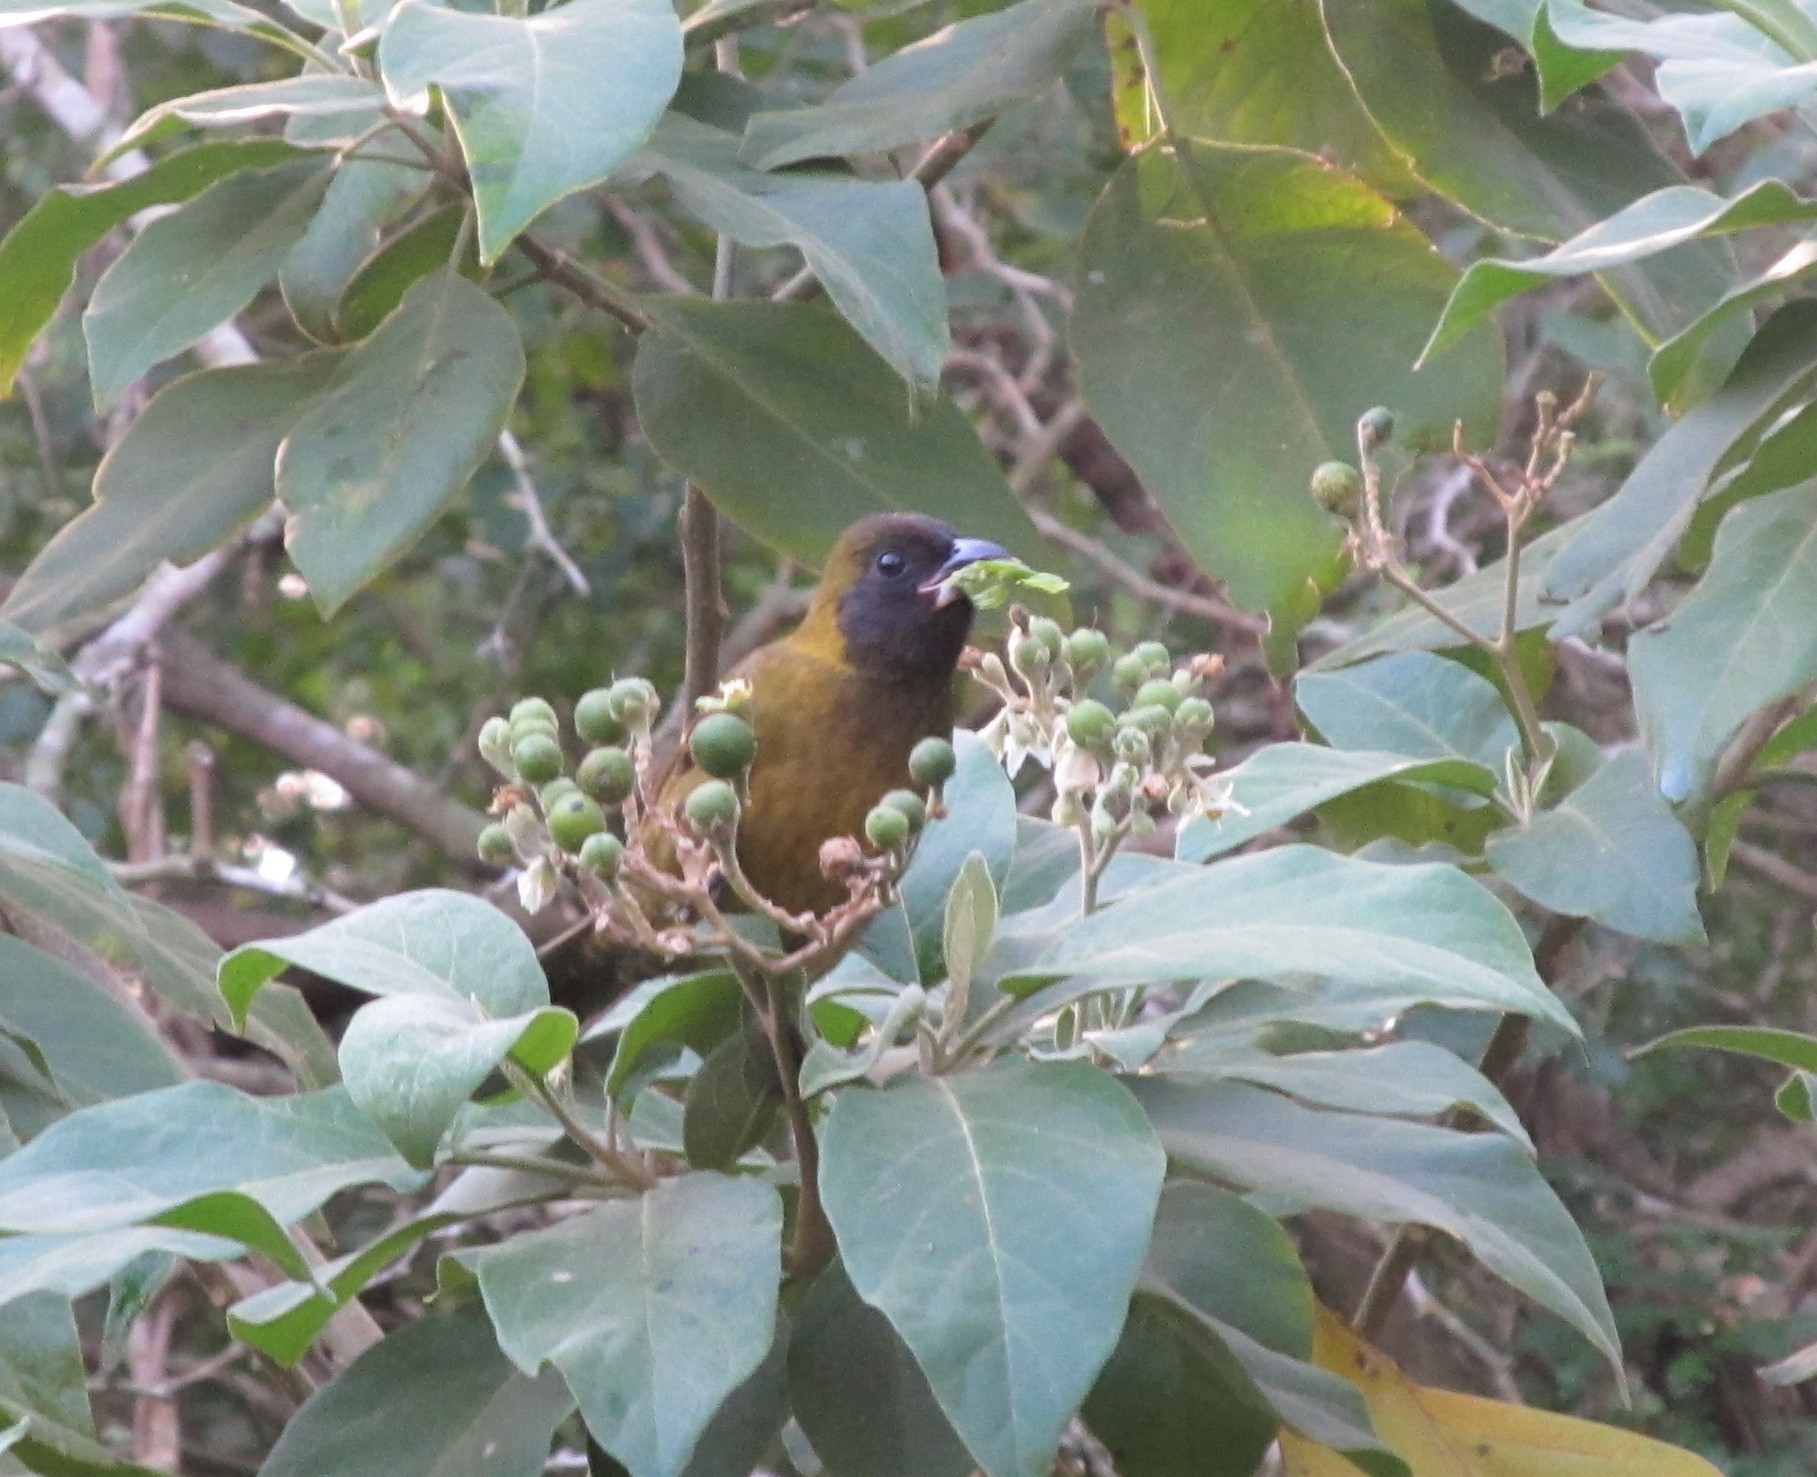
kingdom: Animalia
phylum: Chordata
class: Aves
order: Passeriformes
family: Cardinalidae
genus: Rhodothraupis
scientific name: Rhodothraupis celaeno
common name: Crimson-collared grosbeak
